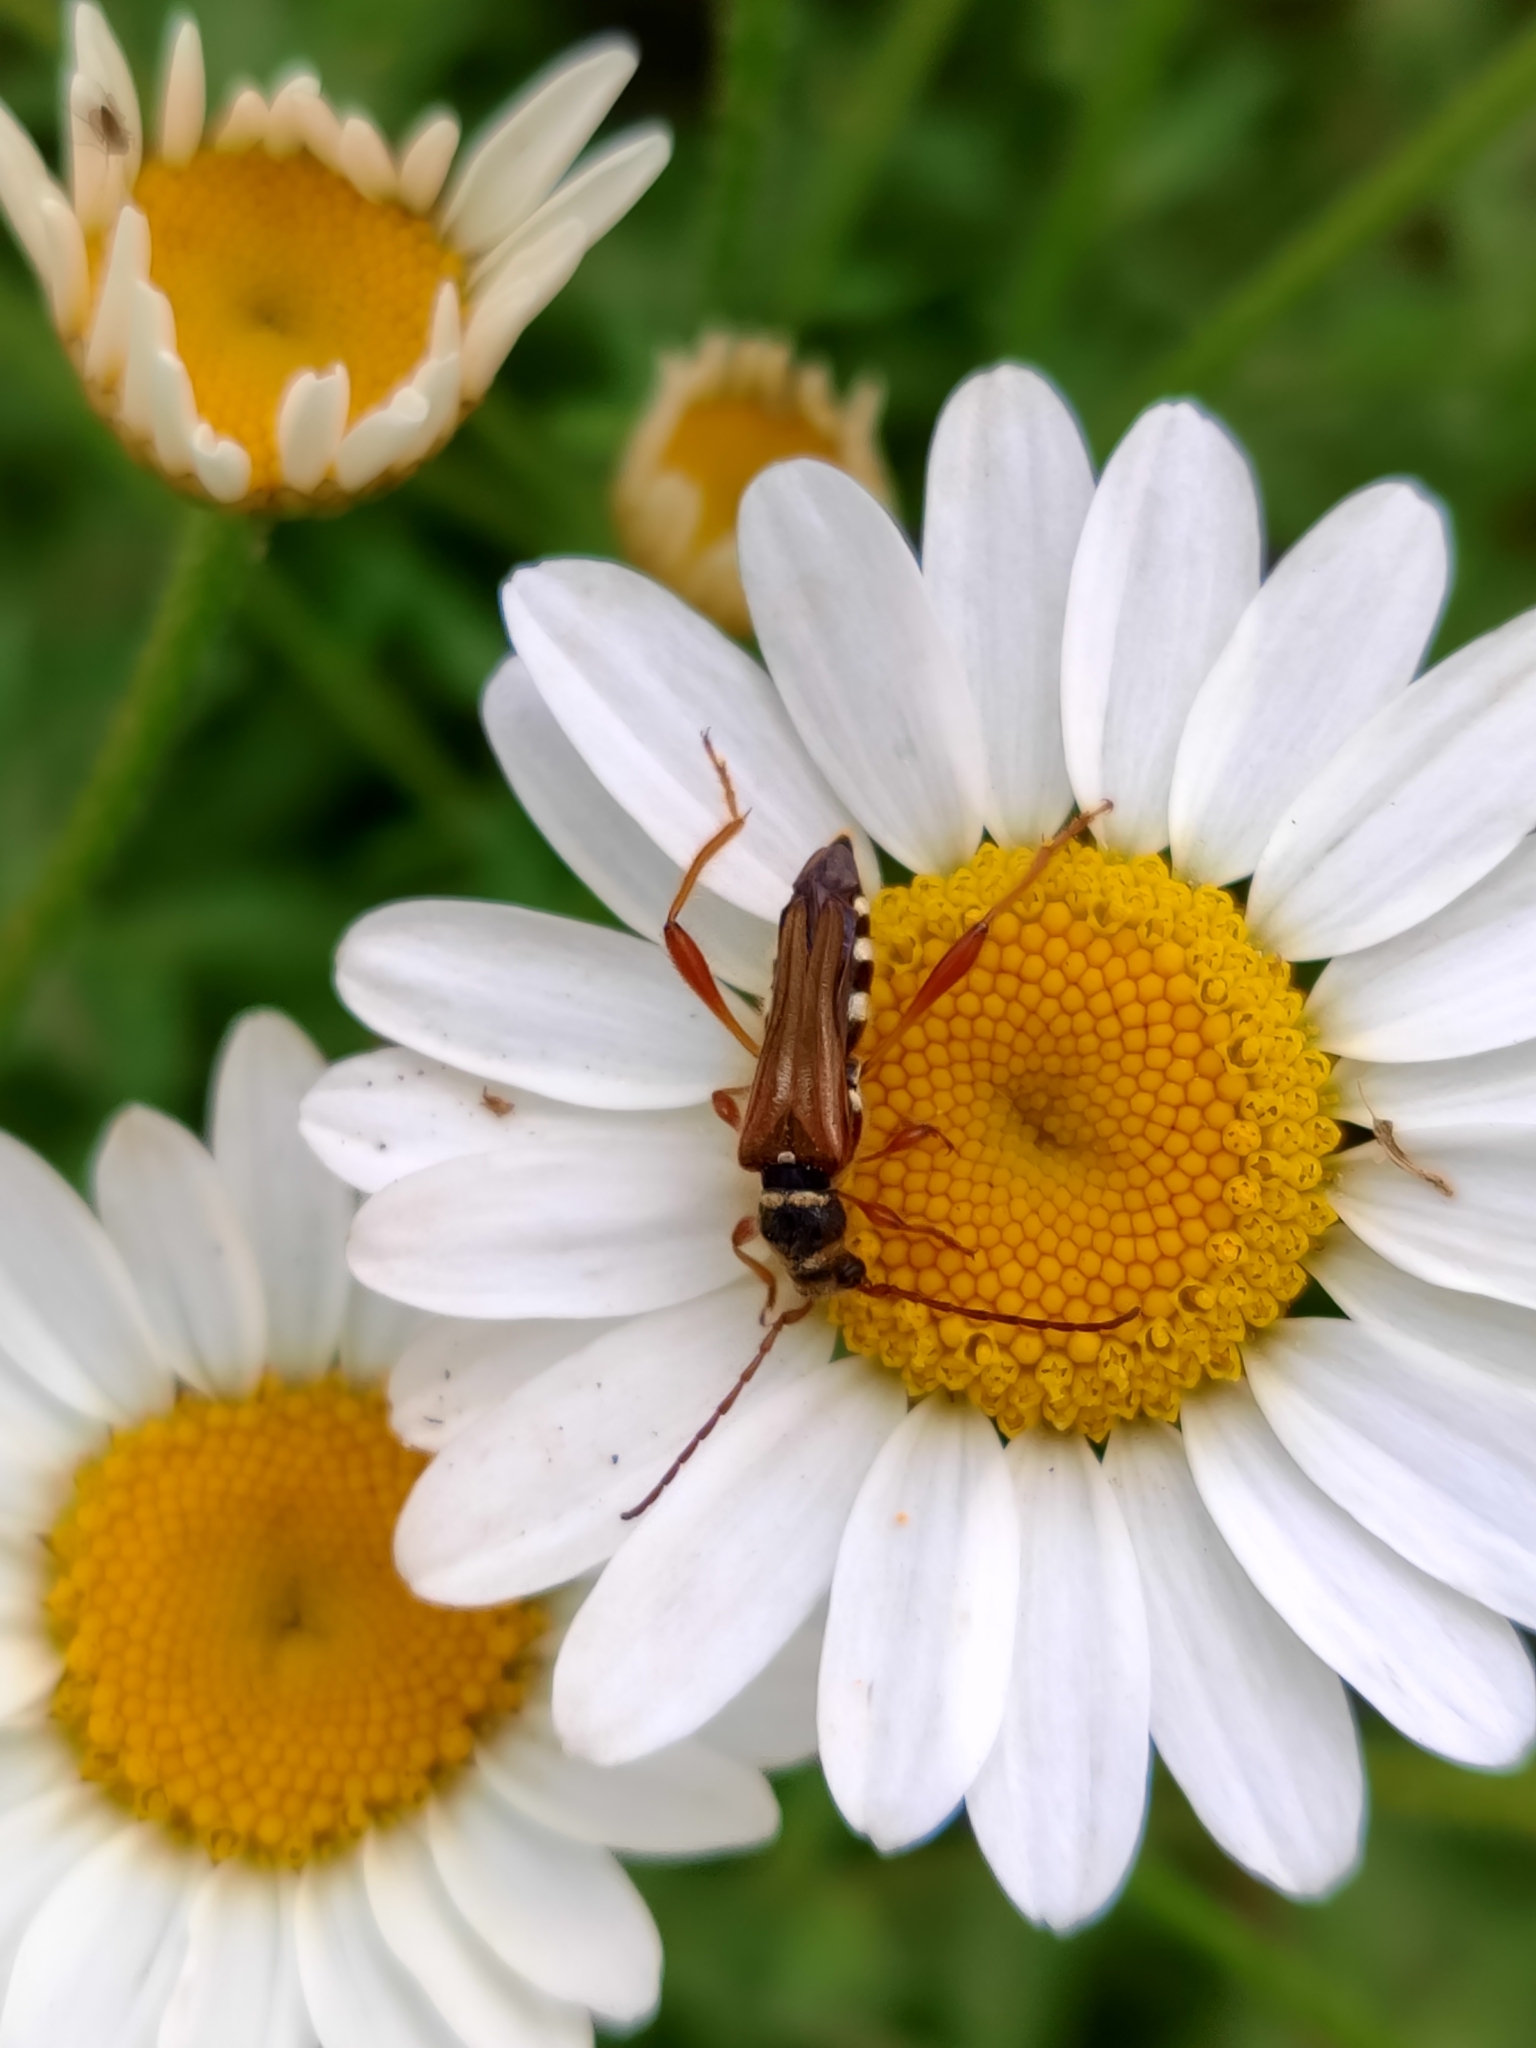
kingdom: Animalia
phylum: Arthropoda
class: Insecta
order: Coleoptera
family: Cerambycidae
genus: Stenopterus
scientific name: Stenopterus mauritanicus
